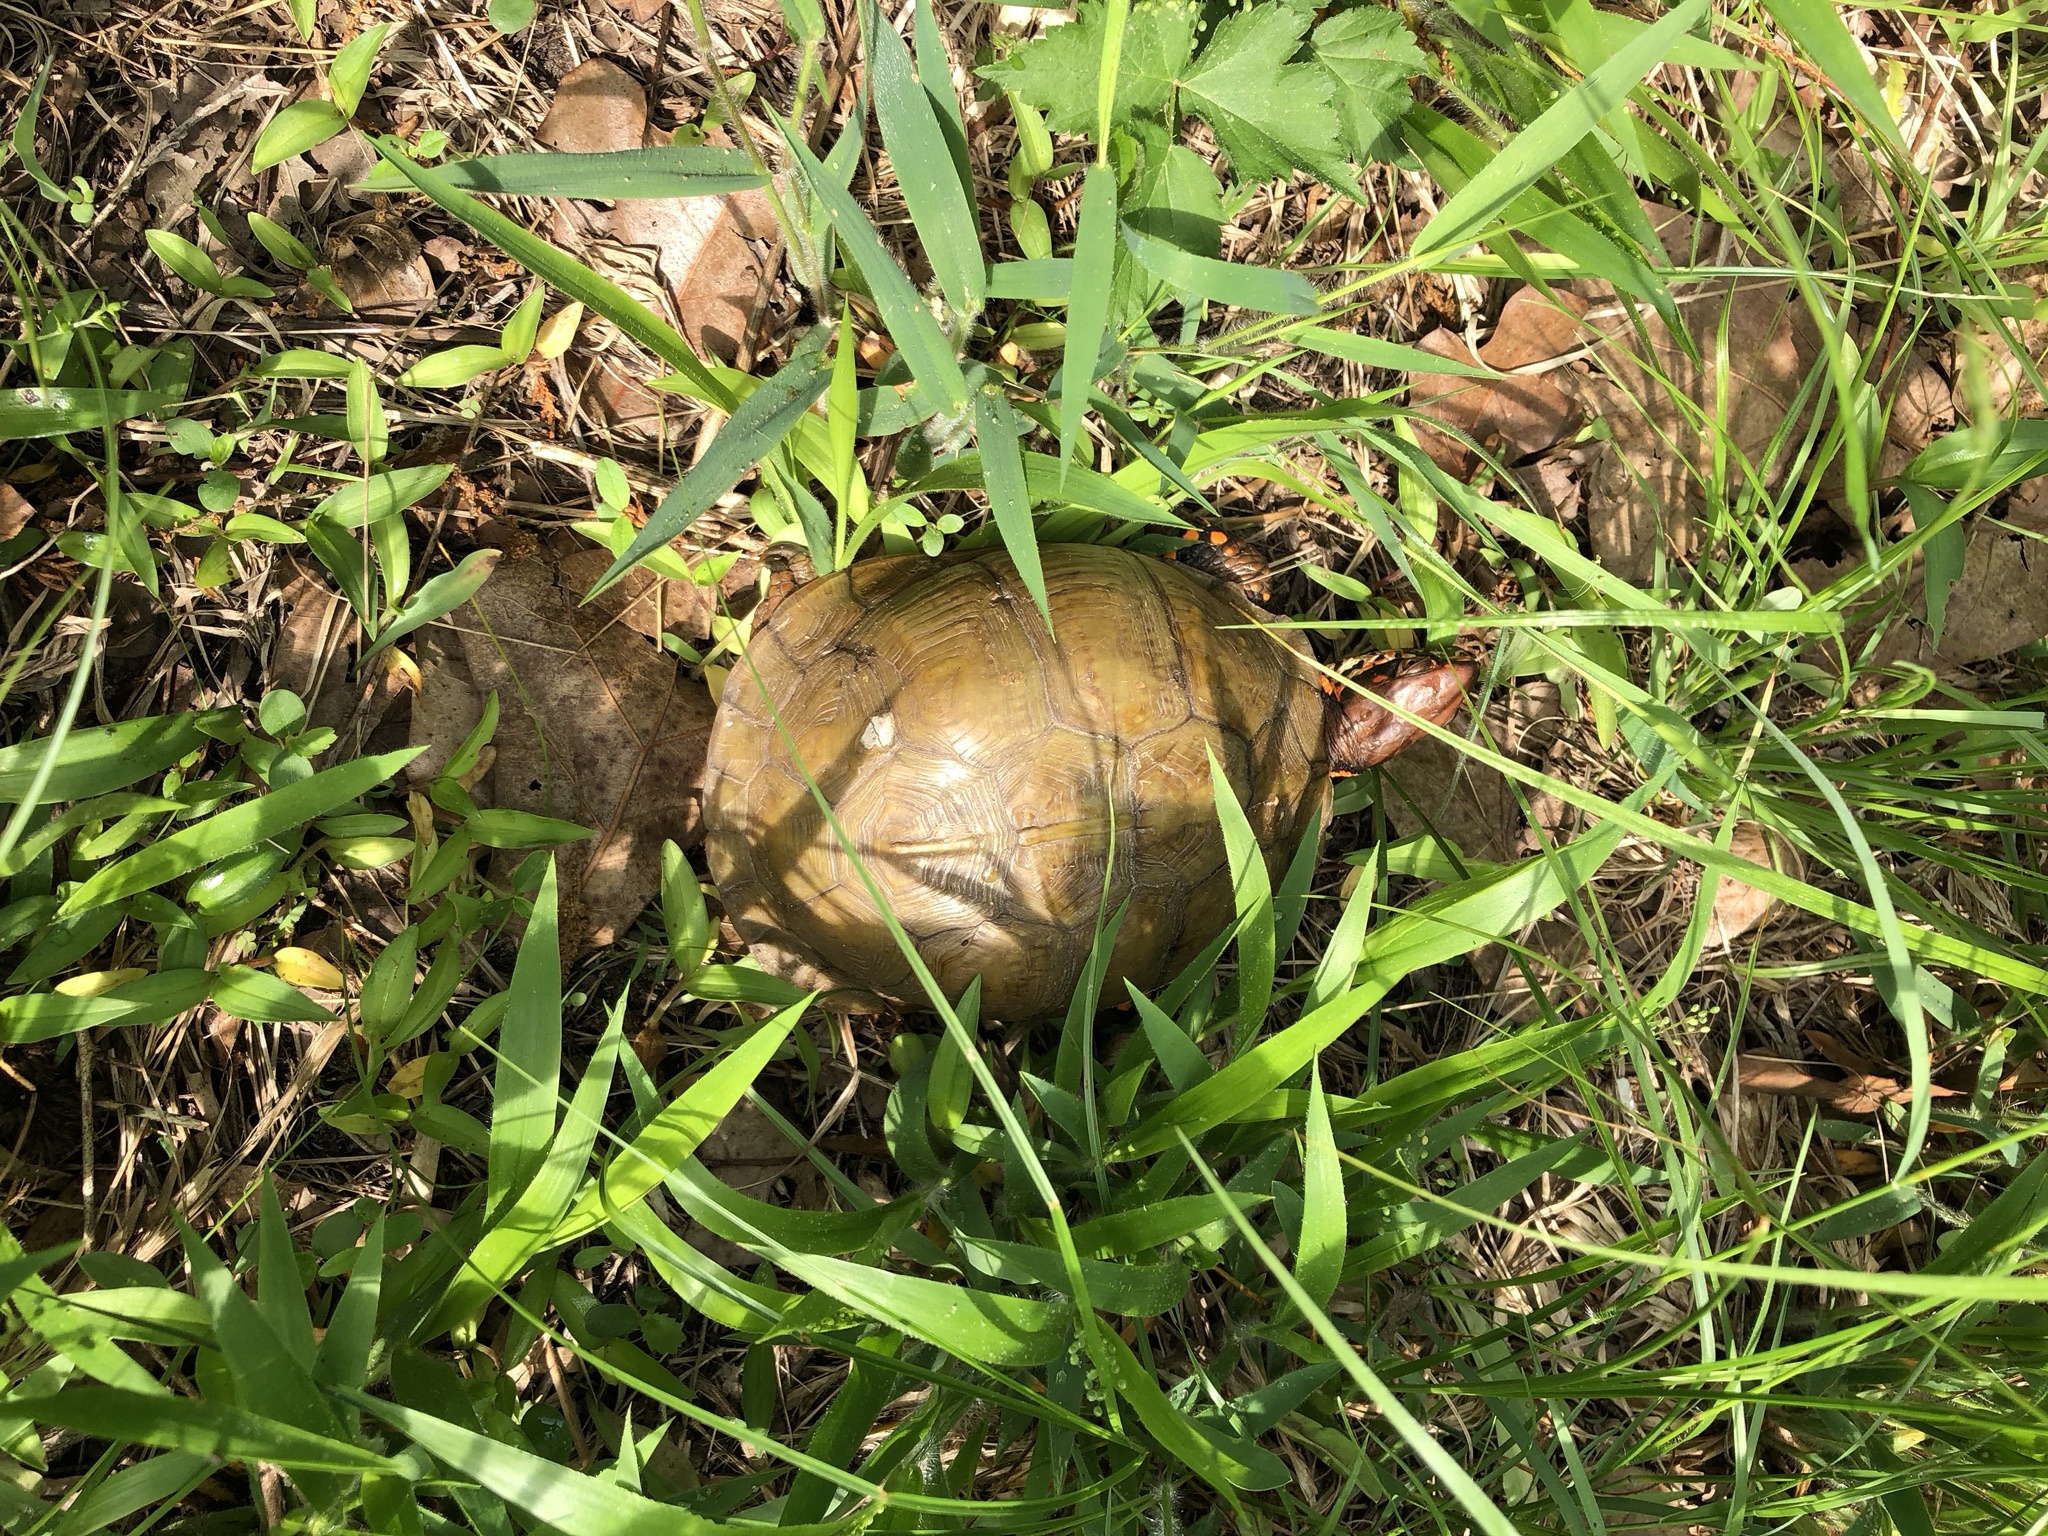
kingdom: Animalia
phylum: Chordata
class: Testudines
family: Emydidae
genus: Terrapene
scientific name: Terrapene carolina
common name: Common box turtle
